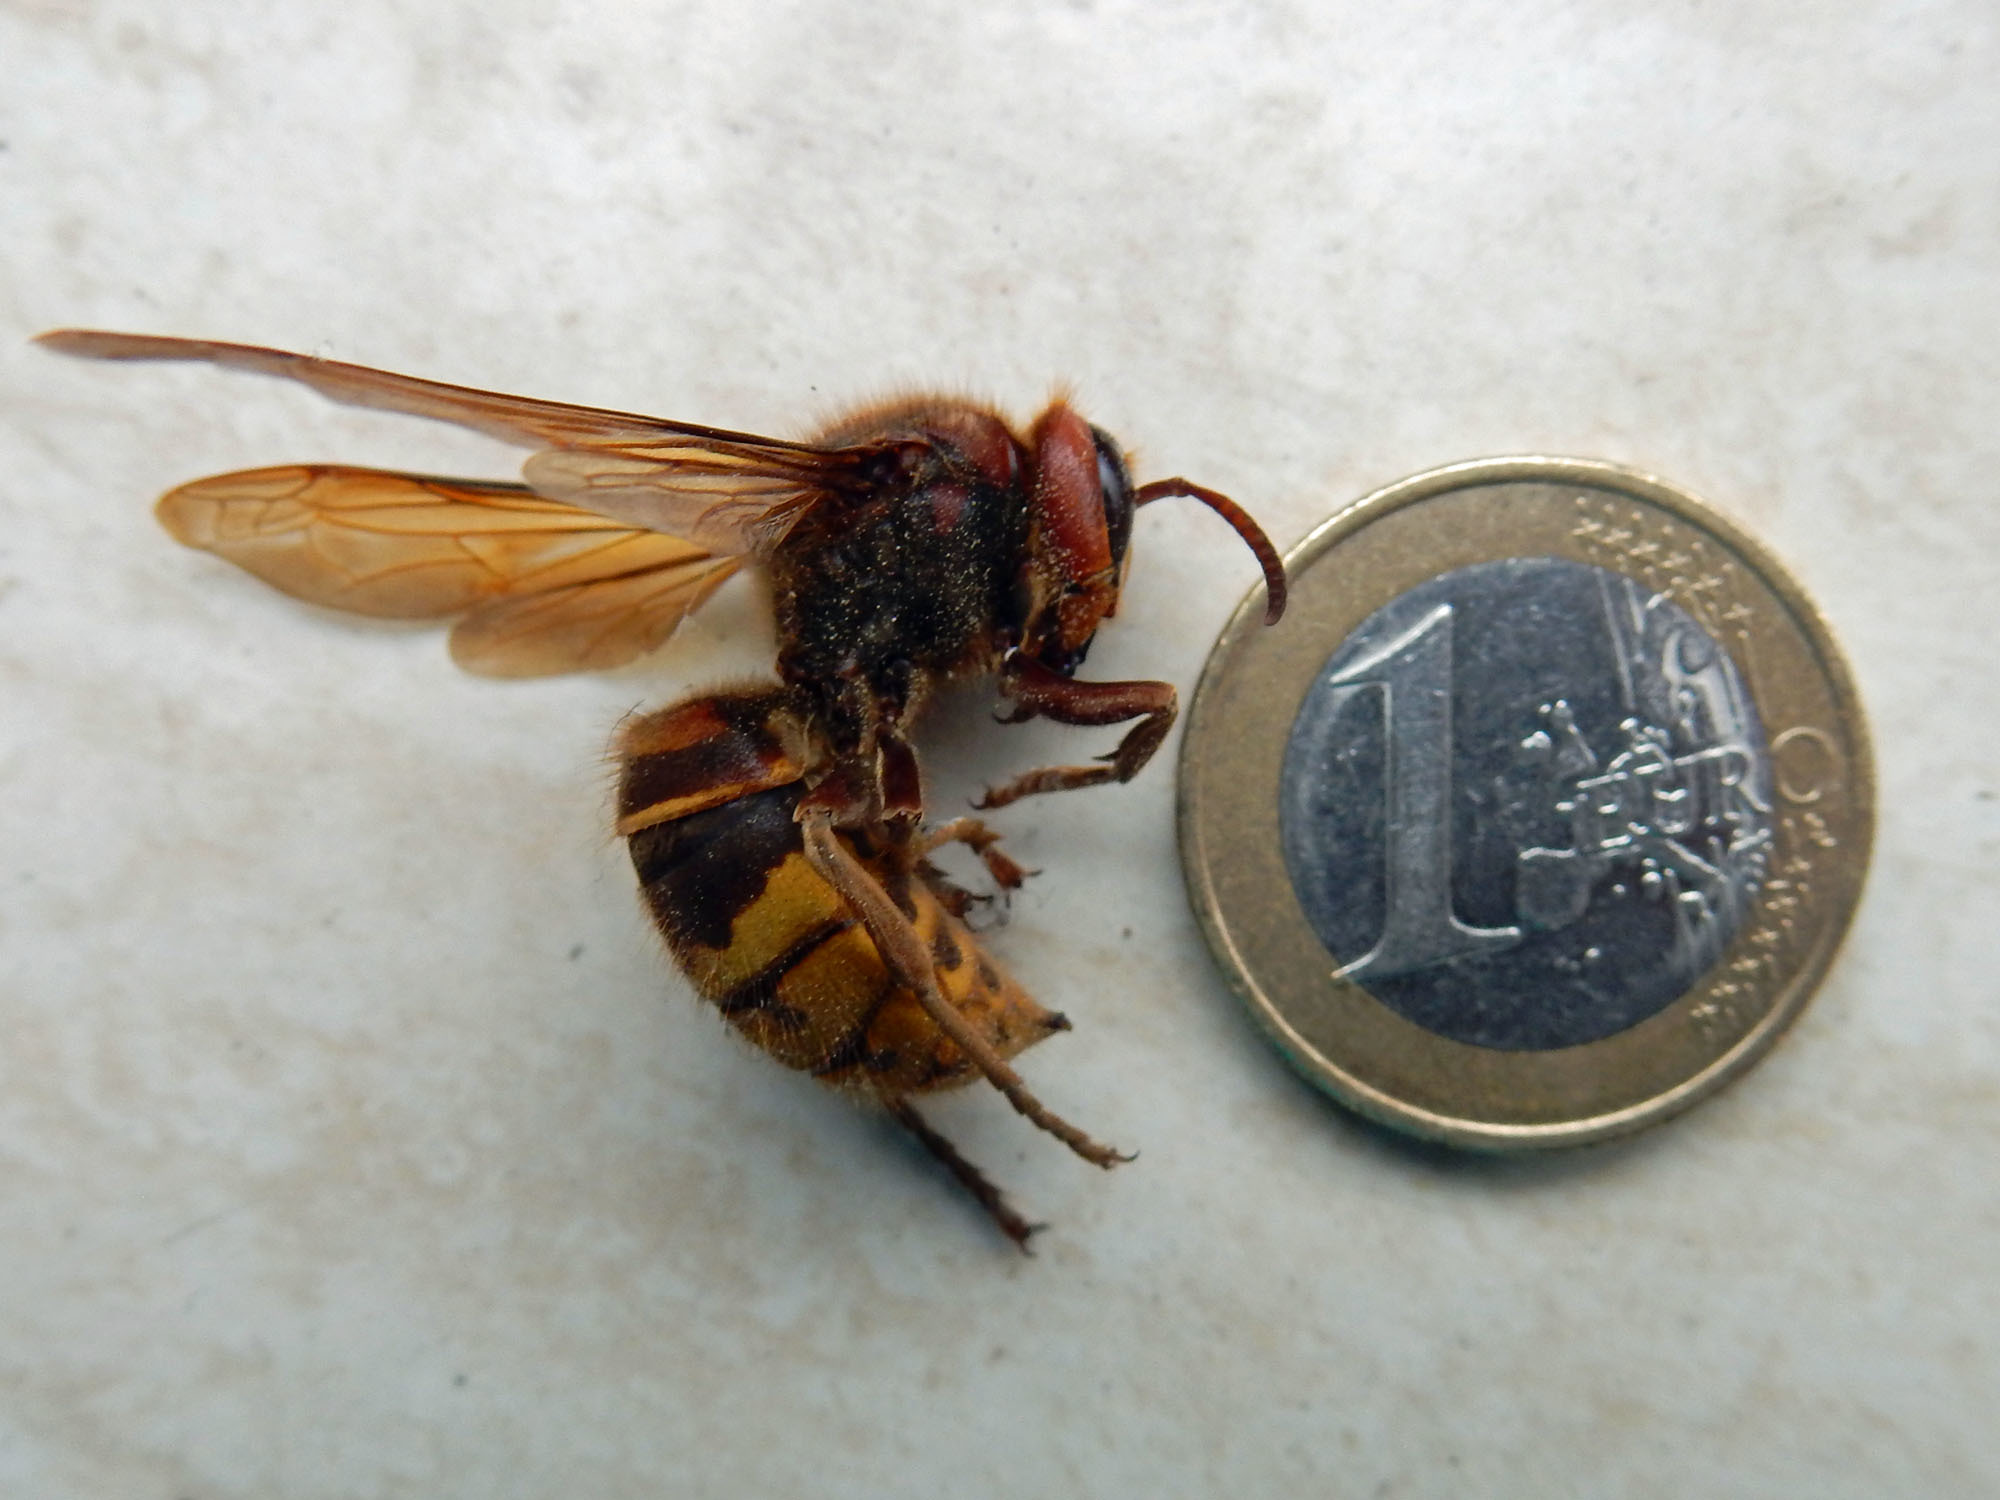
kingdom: Animalia
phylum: Arthropoda
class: Insecta
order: Hymenoptera
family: Vespidae
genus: Vespa
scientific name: Vespa crabro
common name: Hornet
